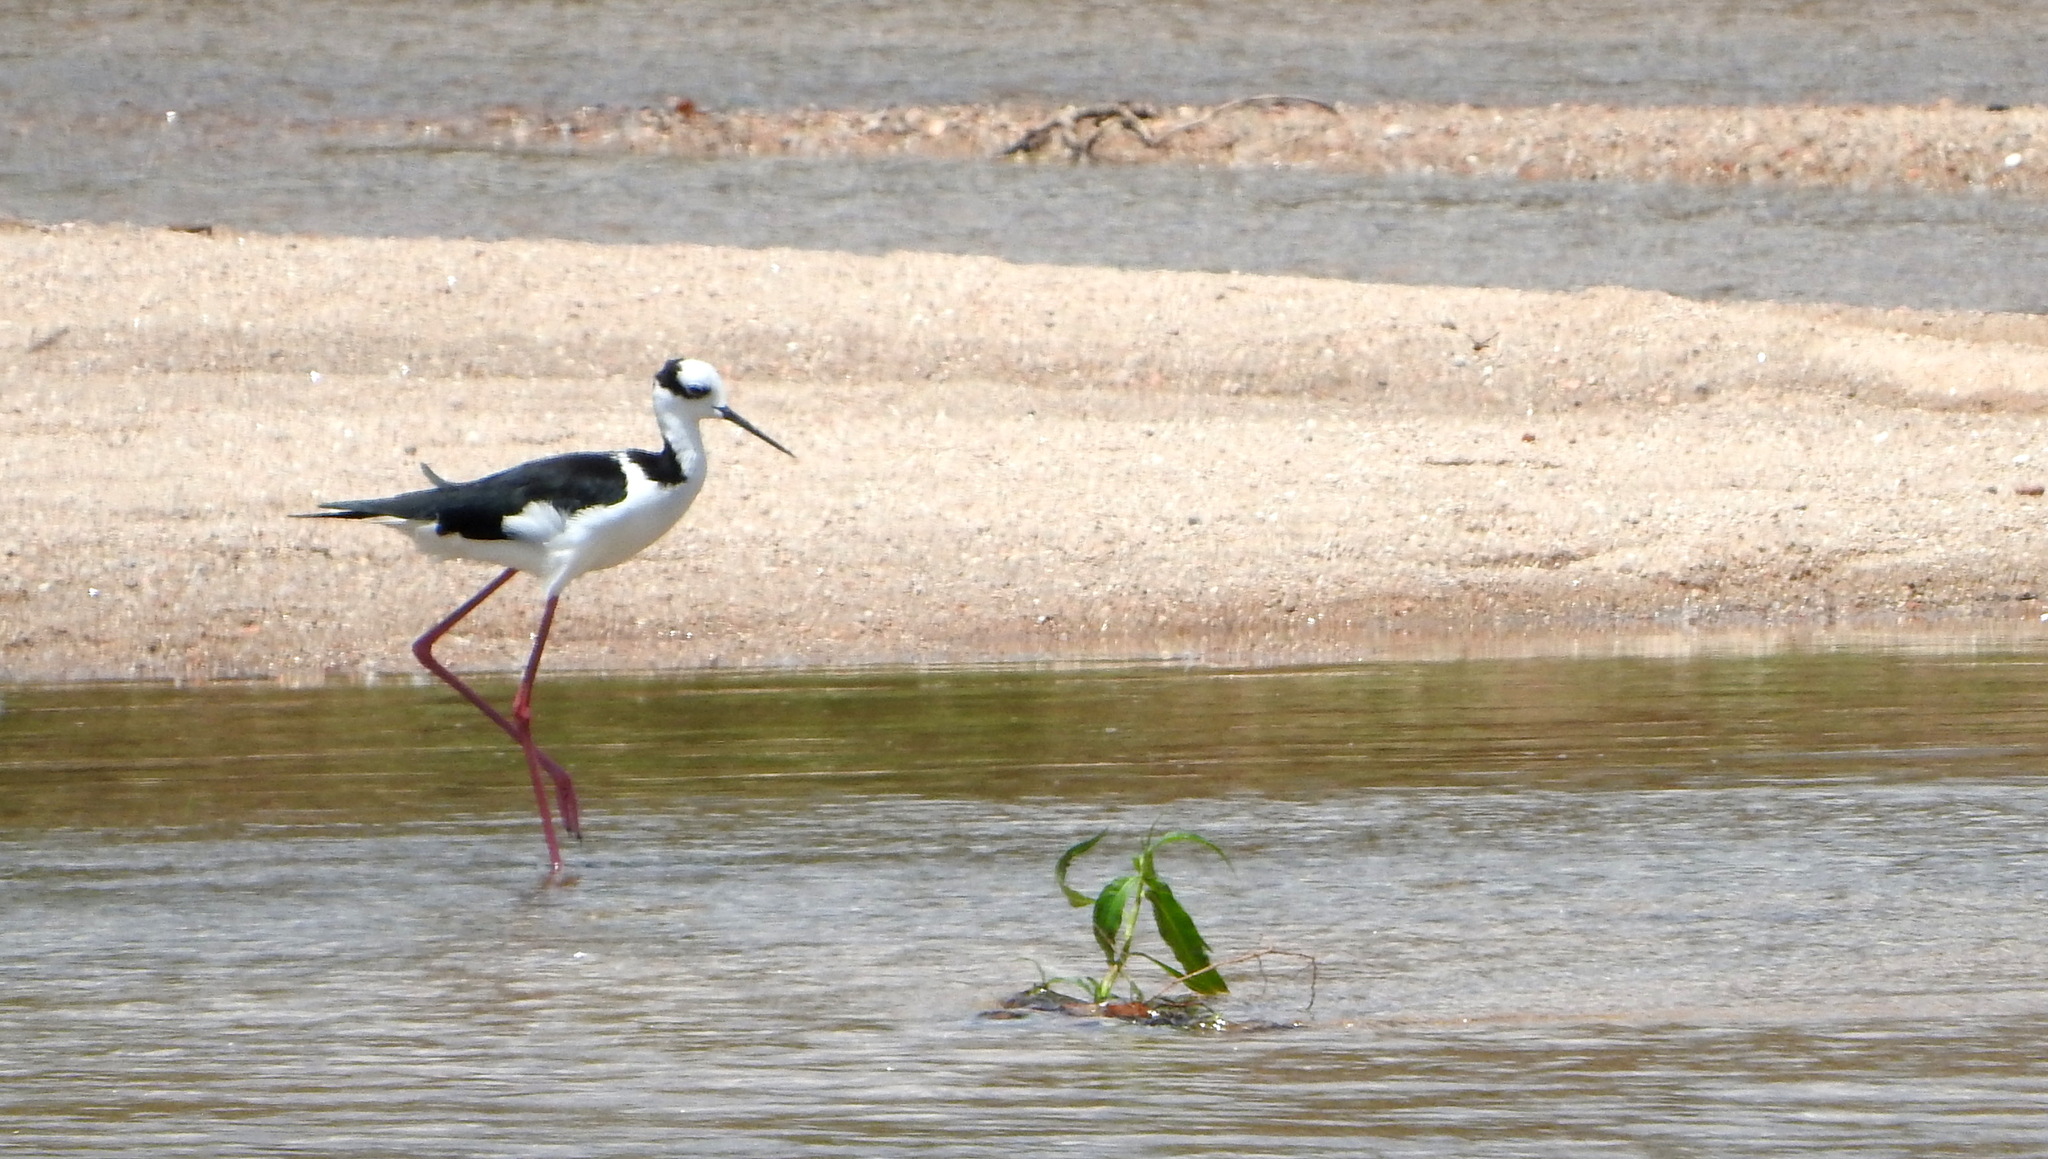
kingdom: Animalia
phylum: Chordata
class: Aves
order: Charadriiformes
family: Recurvirostridae
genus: Himantopus
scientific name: Himantopus mexicanus
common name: Black-necked stilt
